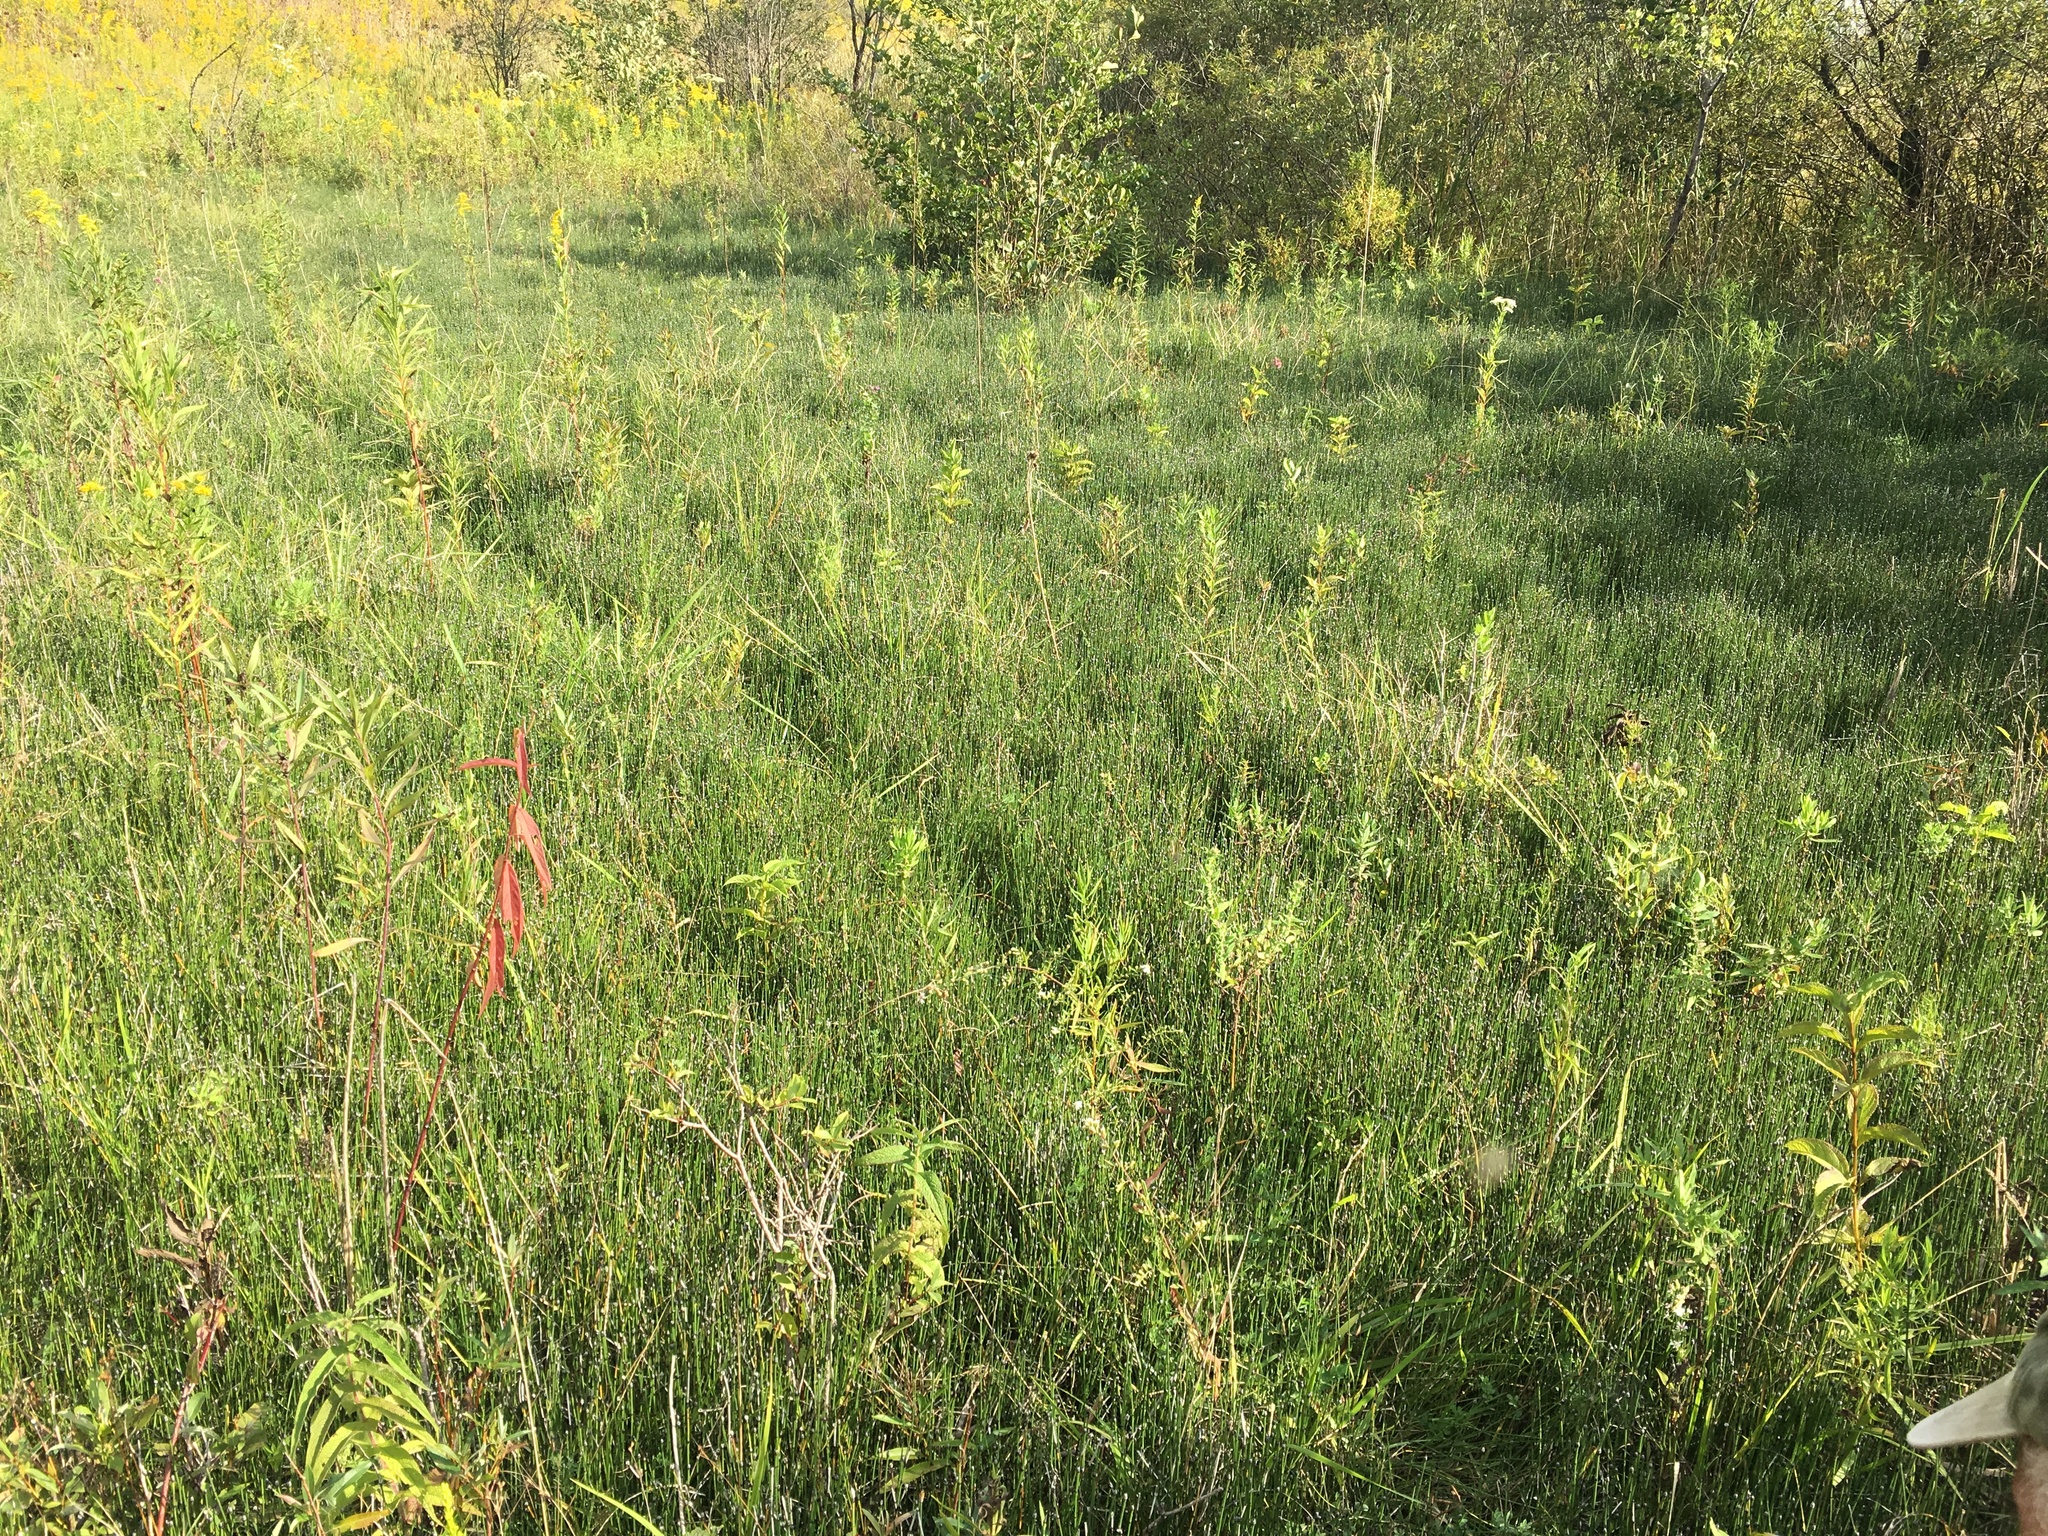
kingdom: Plantae
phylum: Tracheophyta
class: Polypodiopsida
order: Equisetales
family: Equisetaceae
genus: Equisetum
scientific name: Equisetum variegatum
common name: Variegated horsetail
